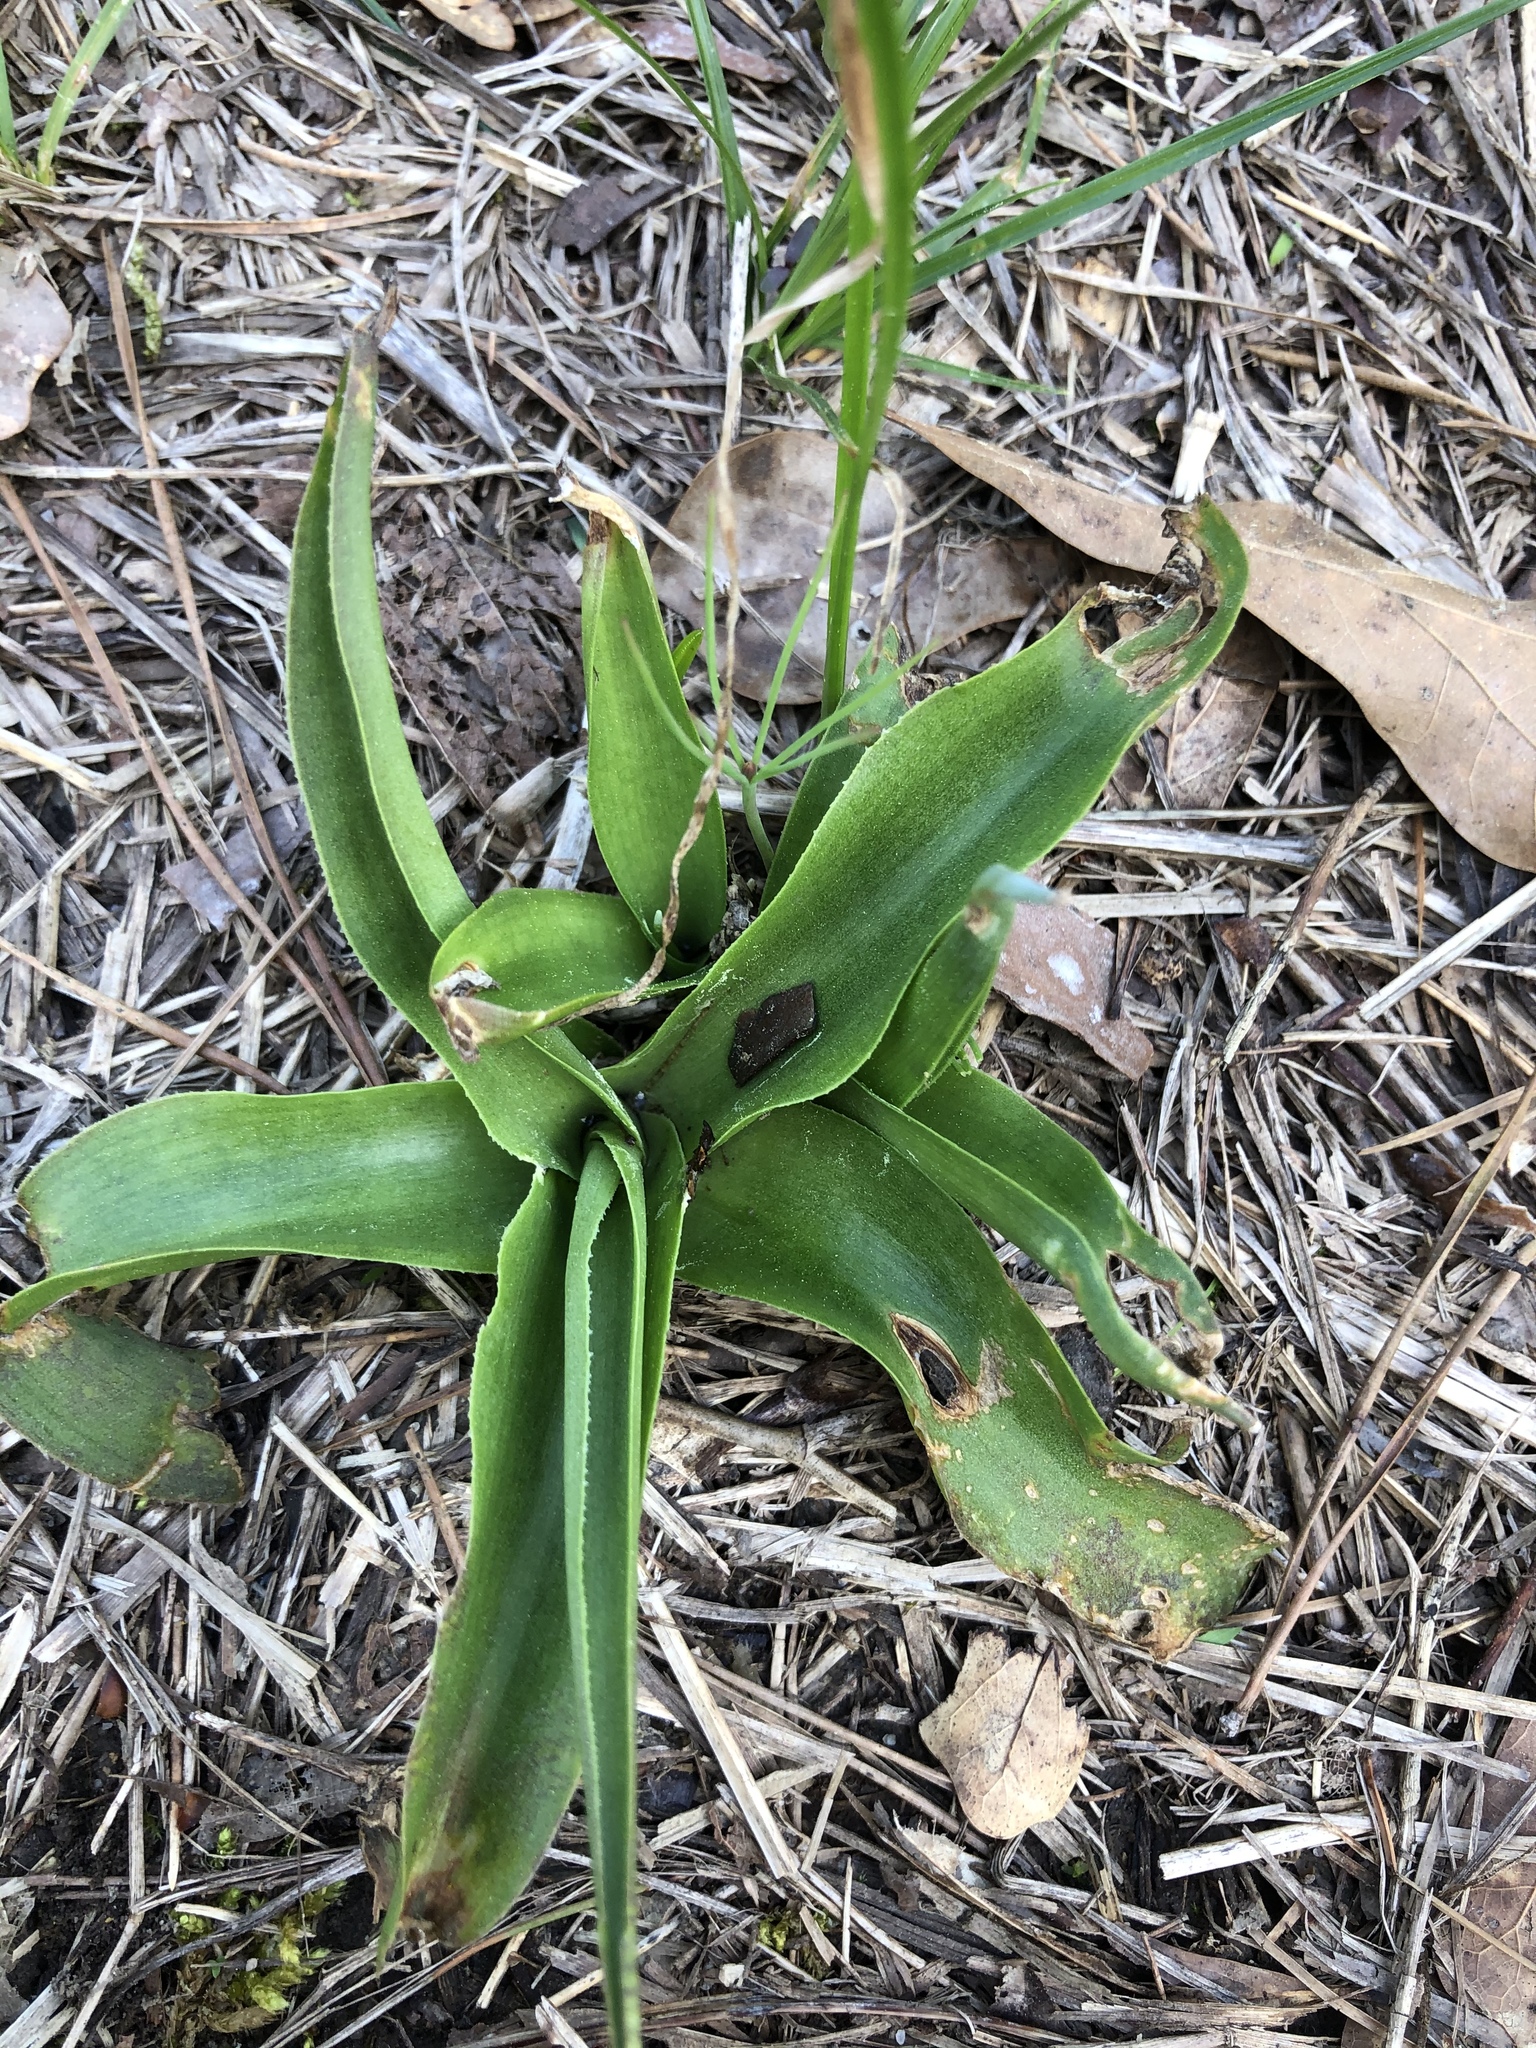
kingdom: Plantae
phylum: Tracheophyta
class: Liliopsida
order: Asparagales
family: Asparagaceae
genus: Agave
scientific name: Agave virginica
